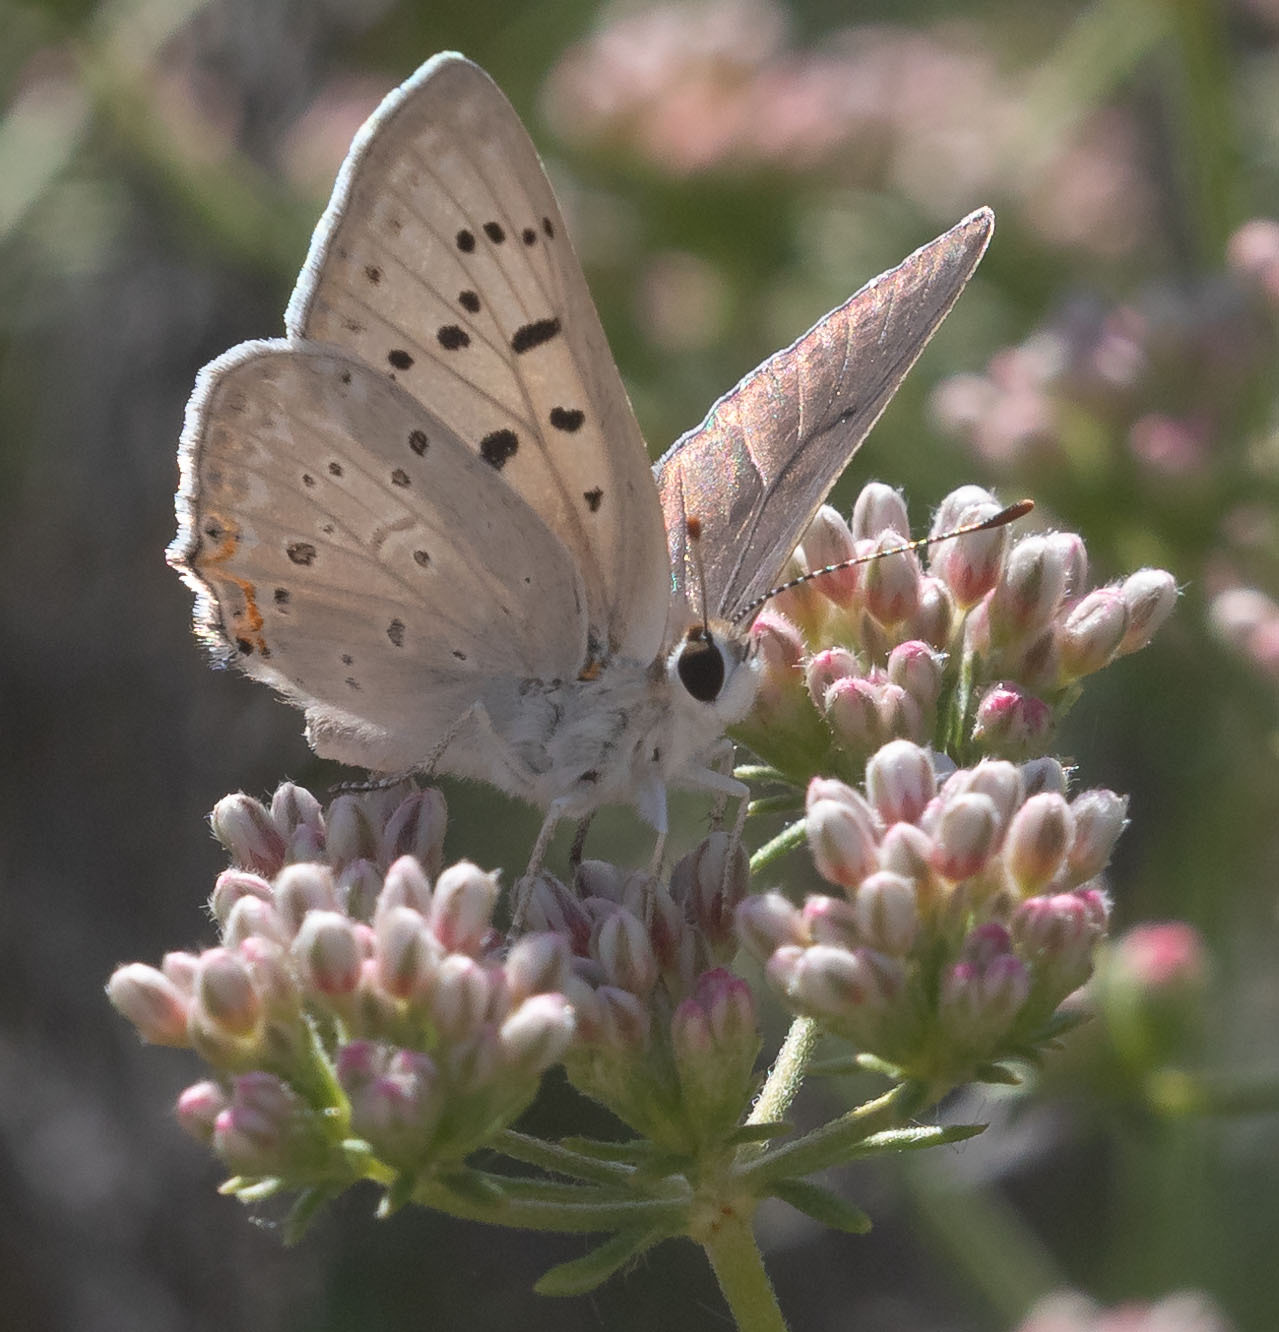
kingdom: Animalia
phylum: Arthropoda
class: Insecta
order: Lepidoptera
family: Lycaenidae
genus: Tharsalea
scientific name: Tharsalea xanthoides
